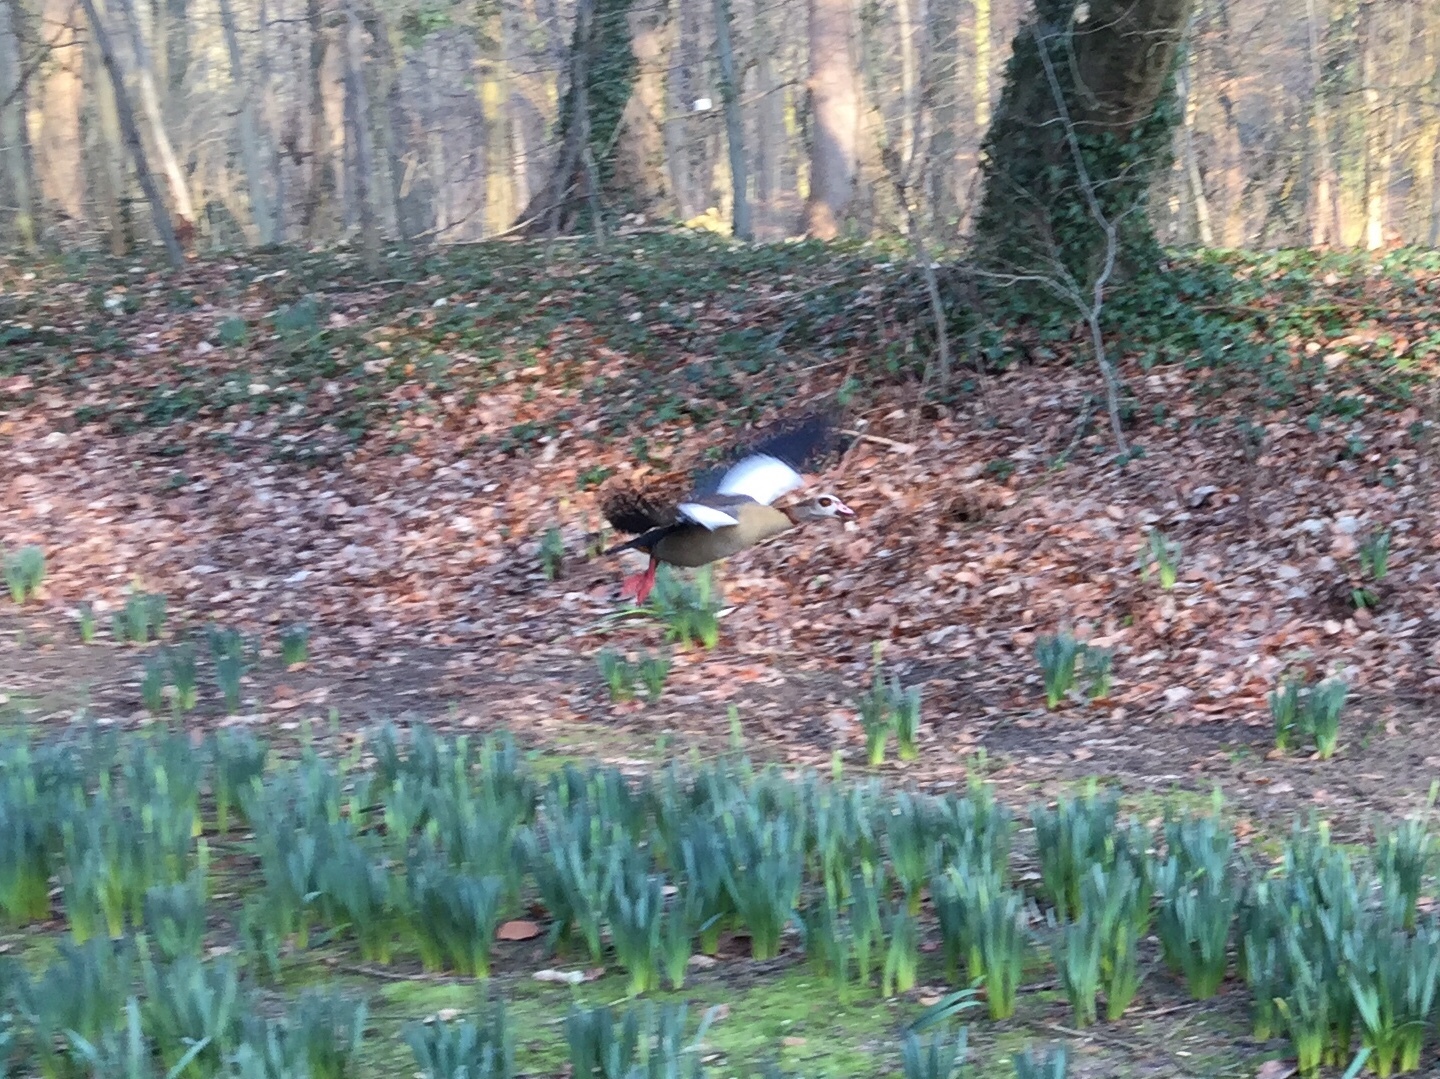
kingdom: Animalia
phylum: Chordata
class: Aves
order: Anseriformes
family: Anatidae
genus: Alopochen
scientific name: Alopochen aegyptiaca
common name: Egyptian goose
